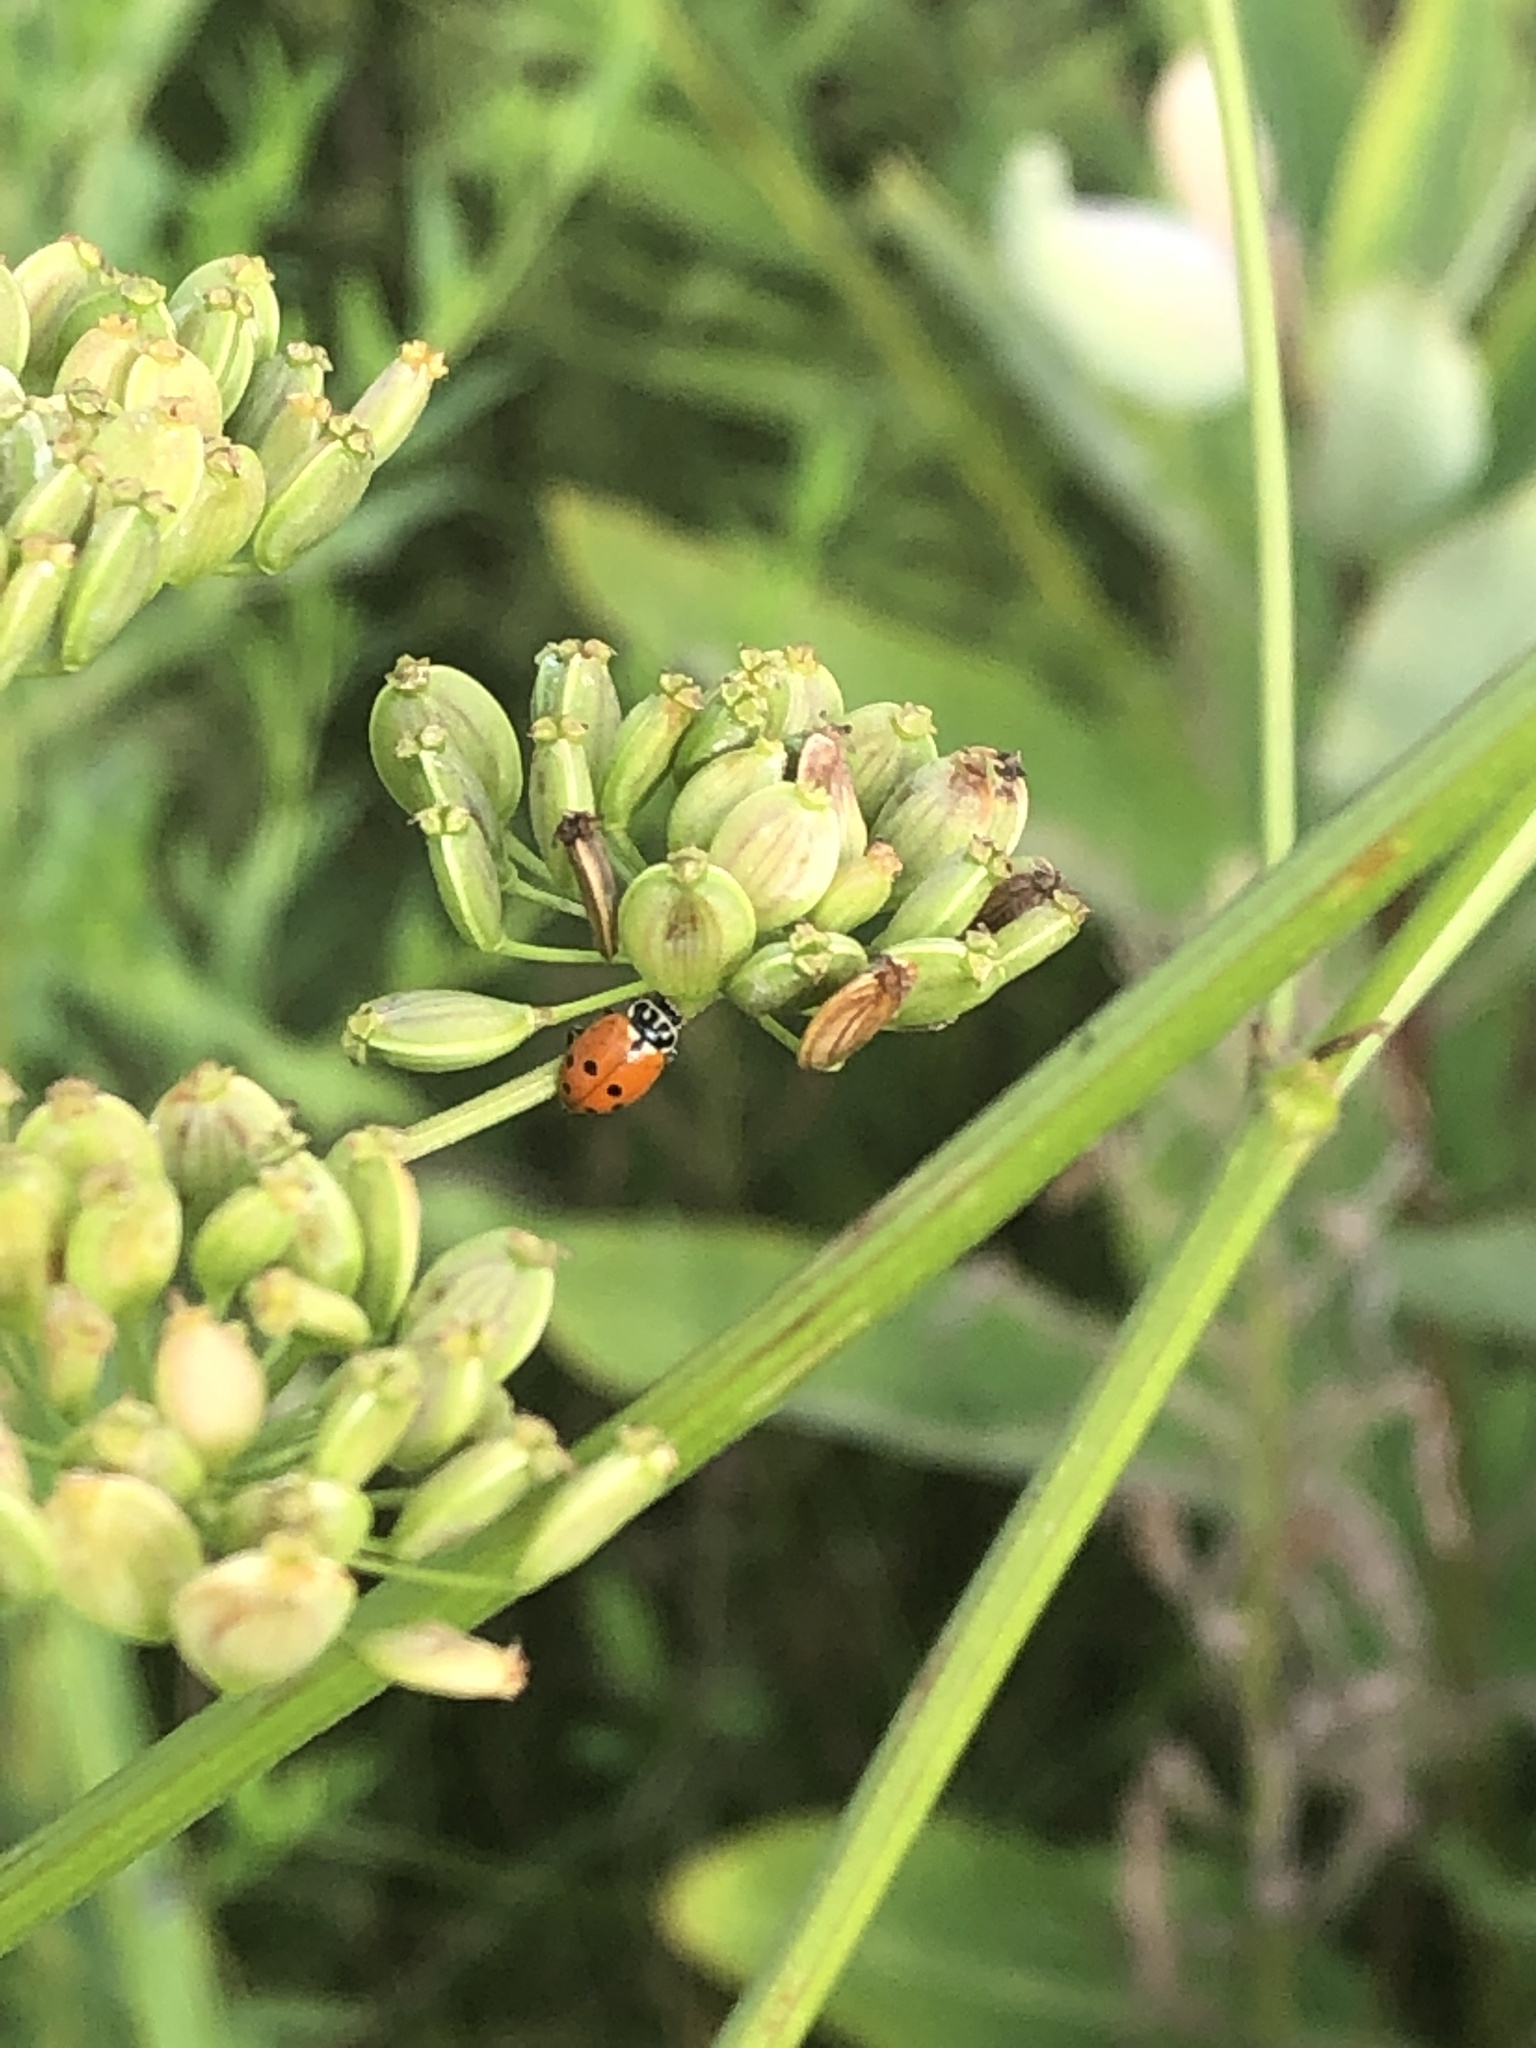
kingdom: Animalia
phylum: Arthropoda
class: Insecta
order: Coleoptera
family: Coccinellidae
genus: Hippodamia
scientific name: Hippodamia variegata
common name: Ladybird beetle
